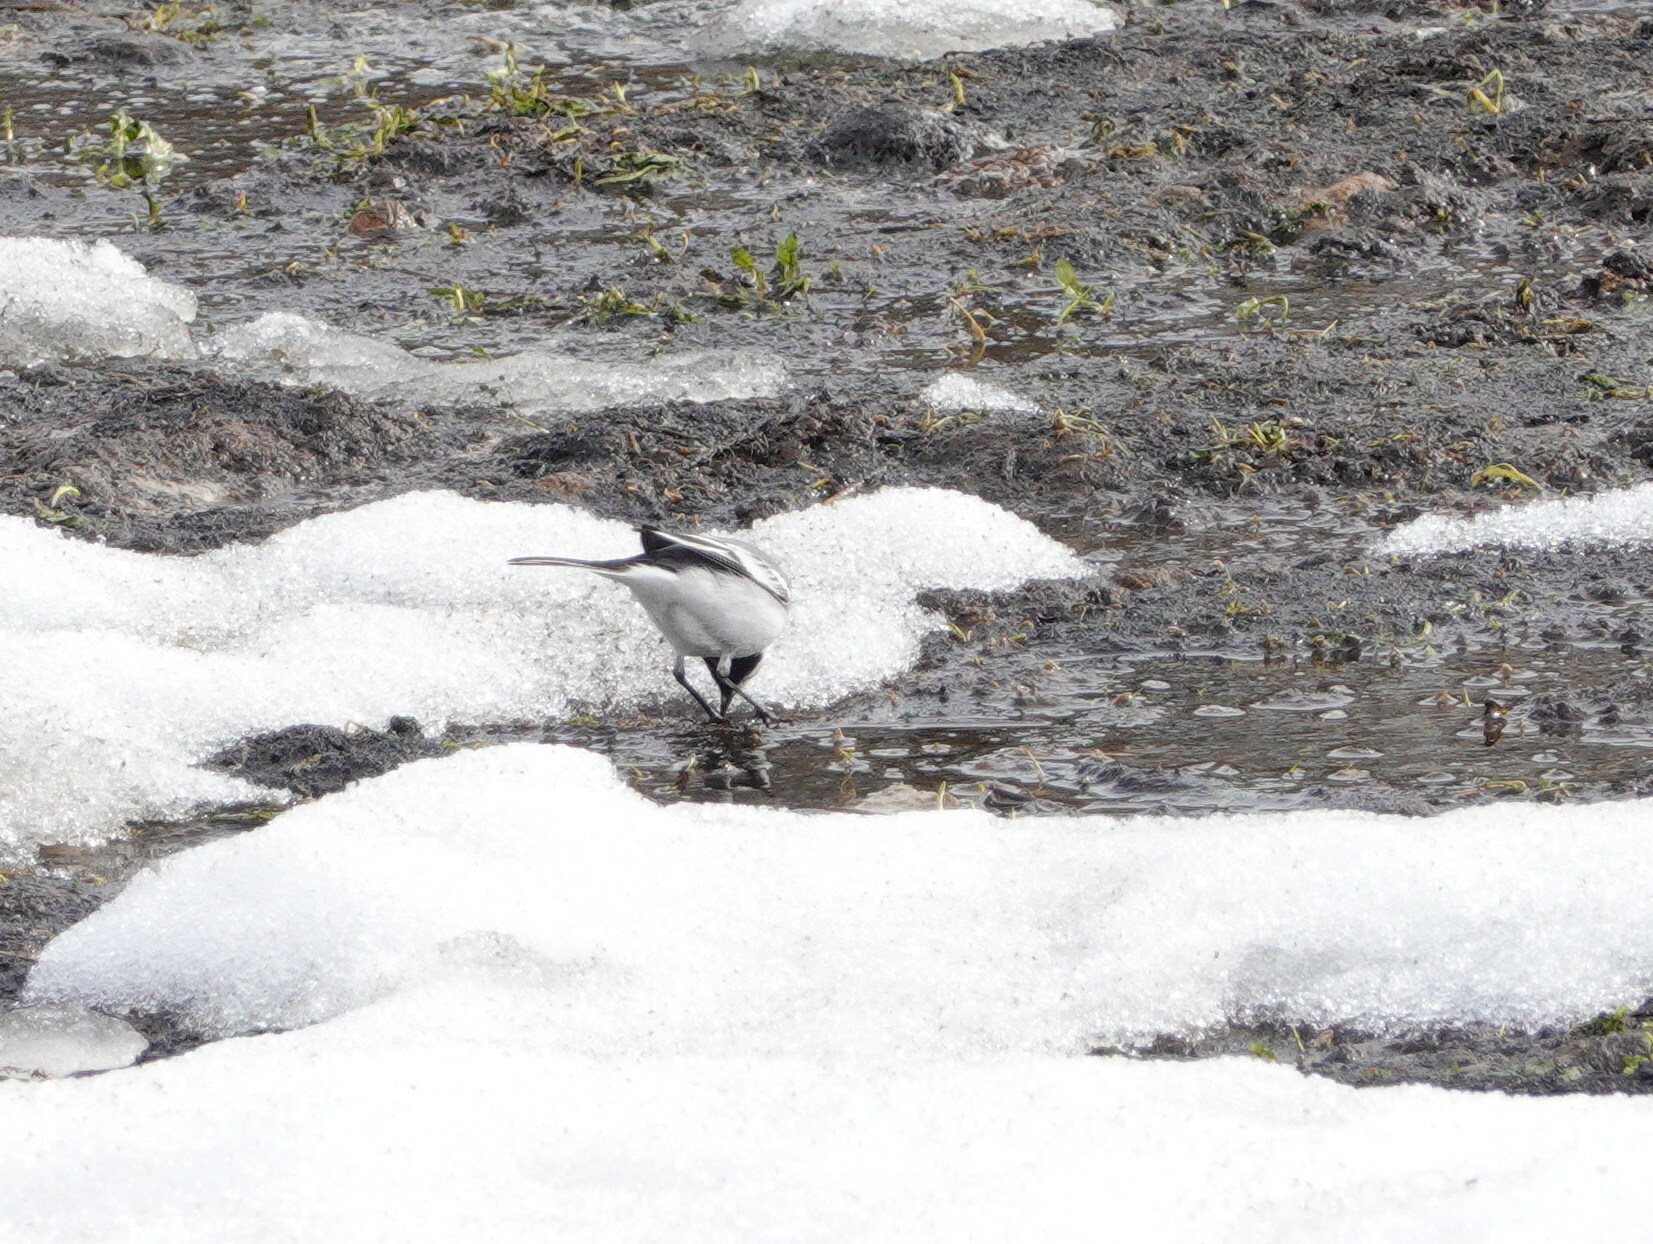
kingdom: Animalia
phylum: Chordata
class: Aves
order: Passeriformes
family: Motacillidae
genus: Motacilla
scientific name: Motacilla alba
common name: White wagtail
